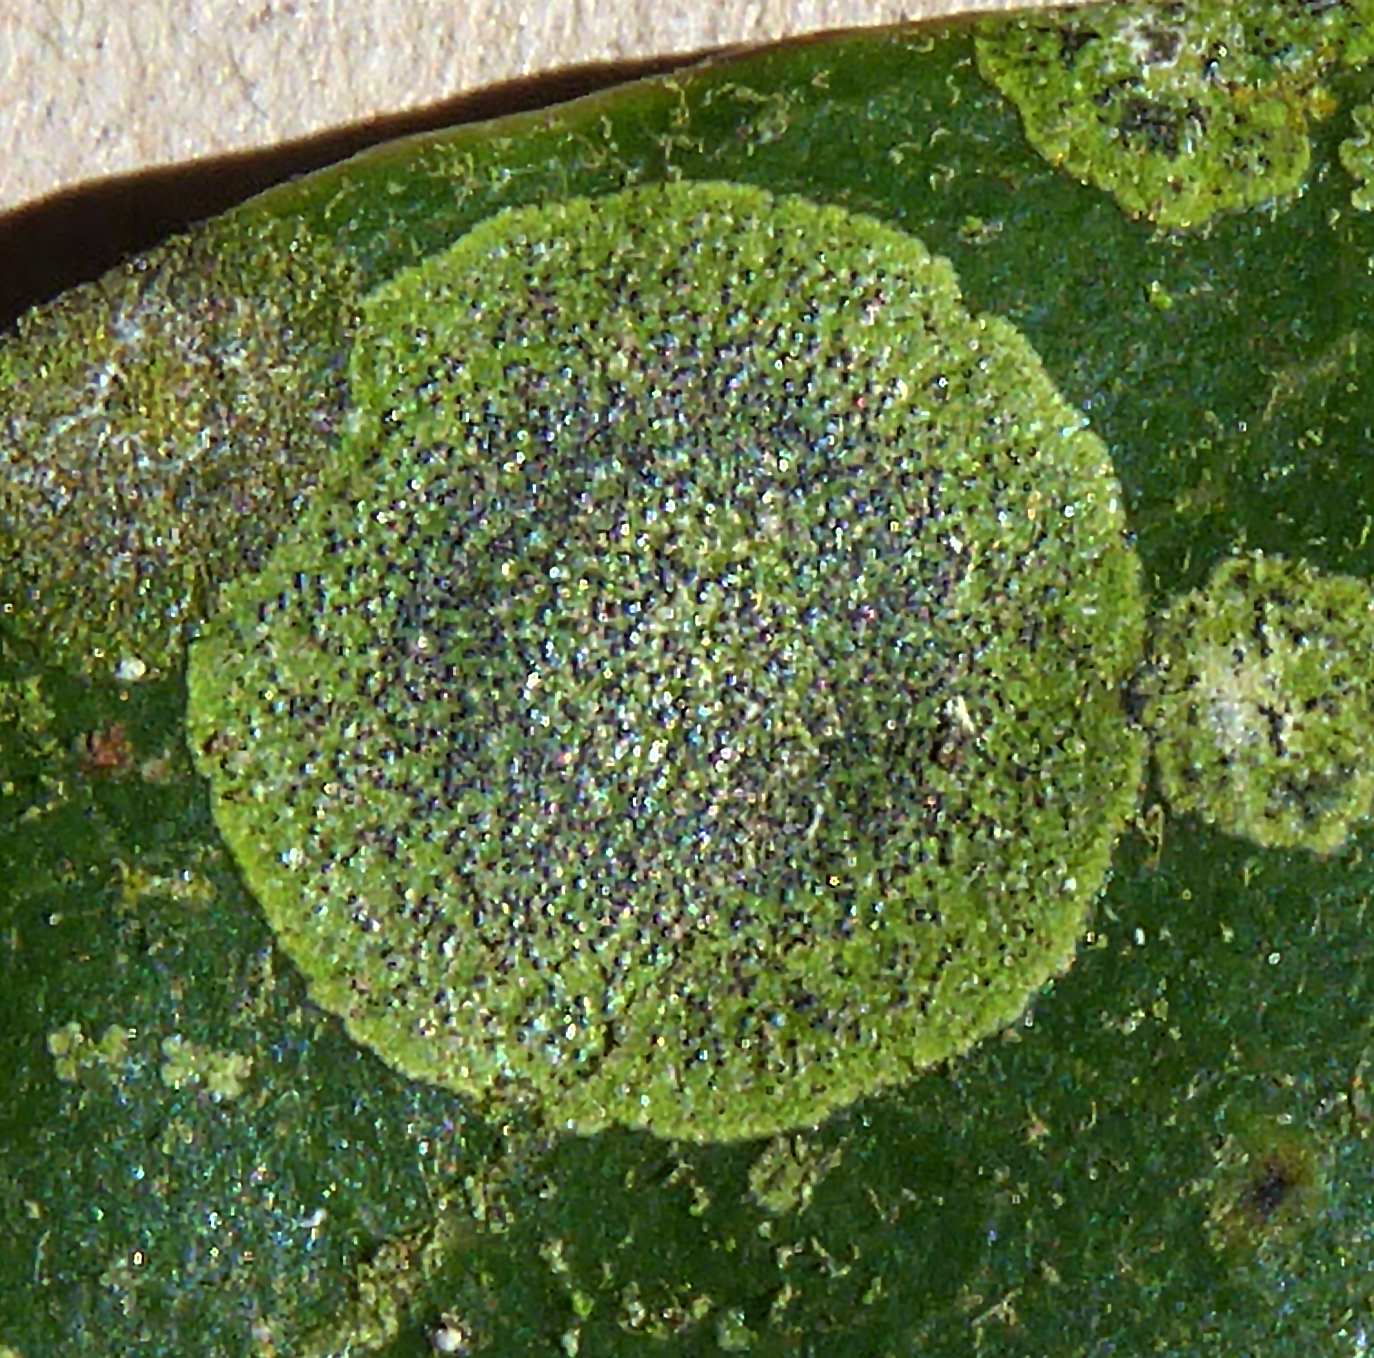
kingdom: Fungi
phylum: Ascomycota
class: Dothideomycetes
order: Strigulales
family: Strigulaceae
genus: Strigula
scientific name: Strigula oleistrata
